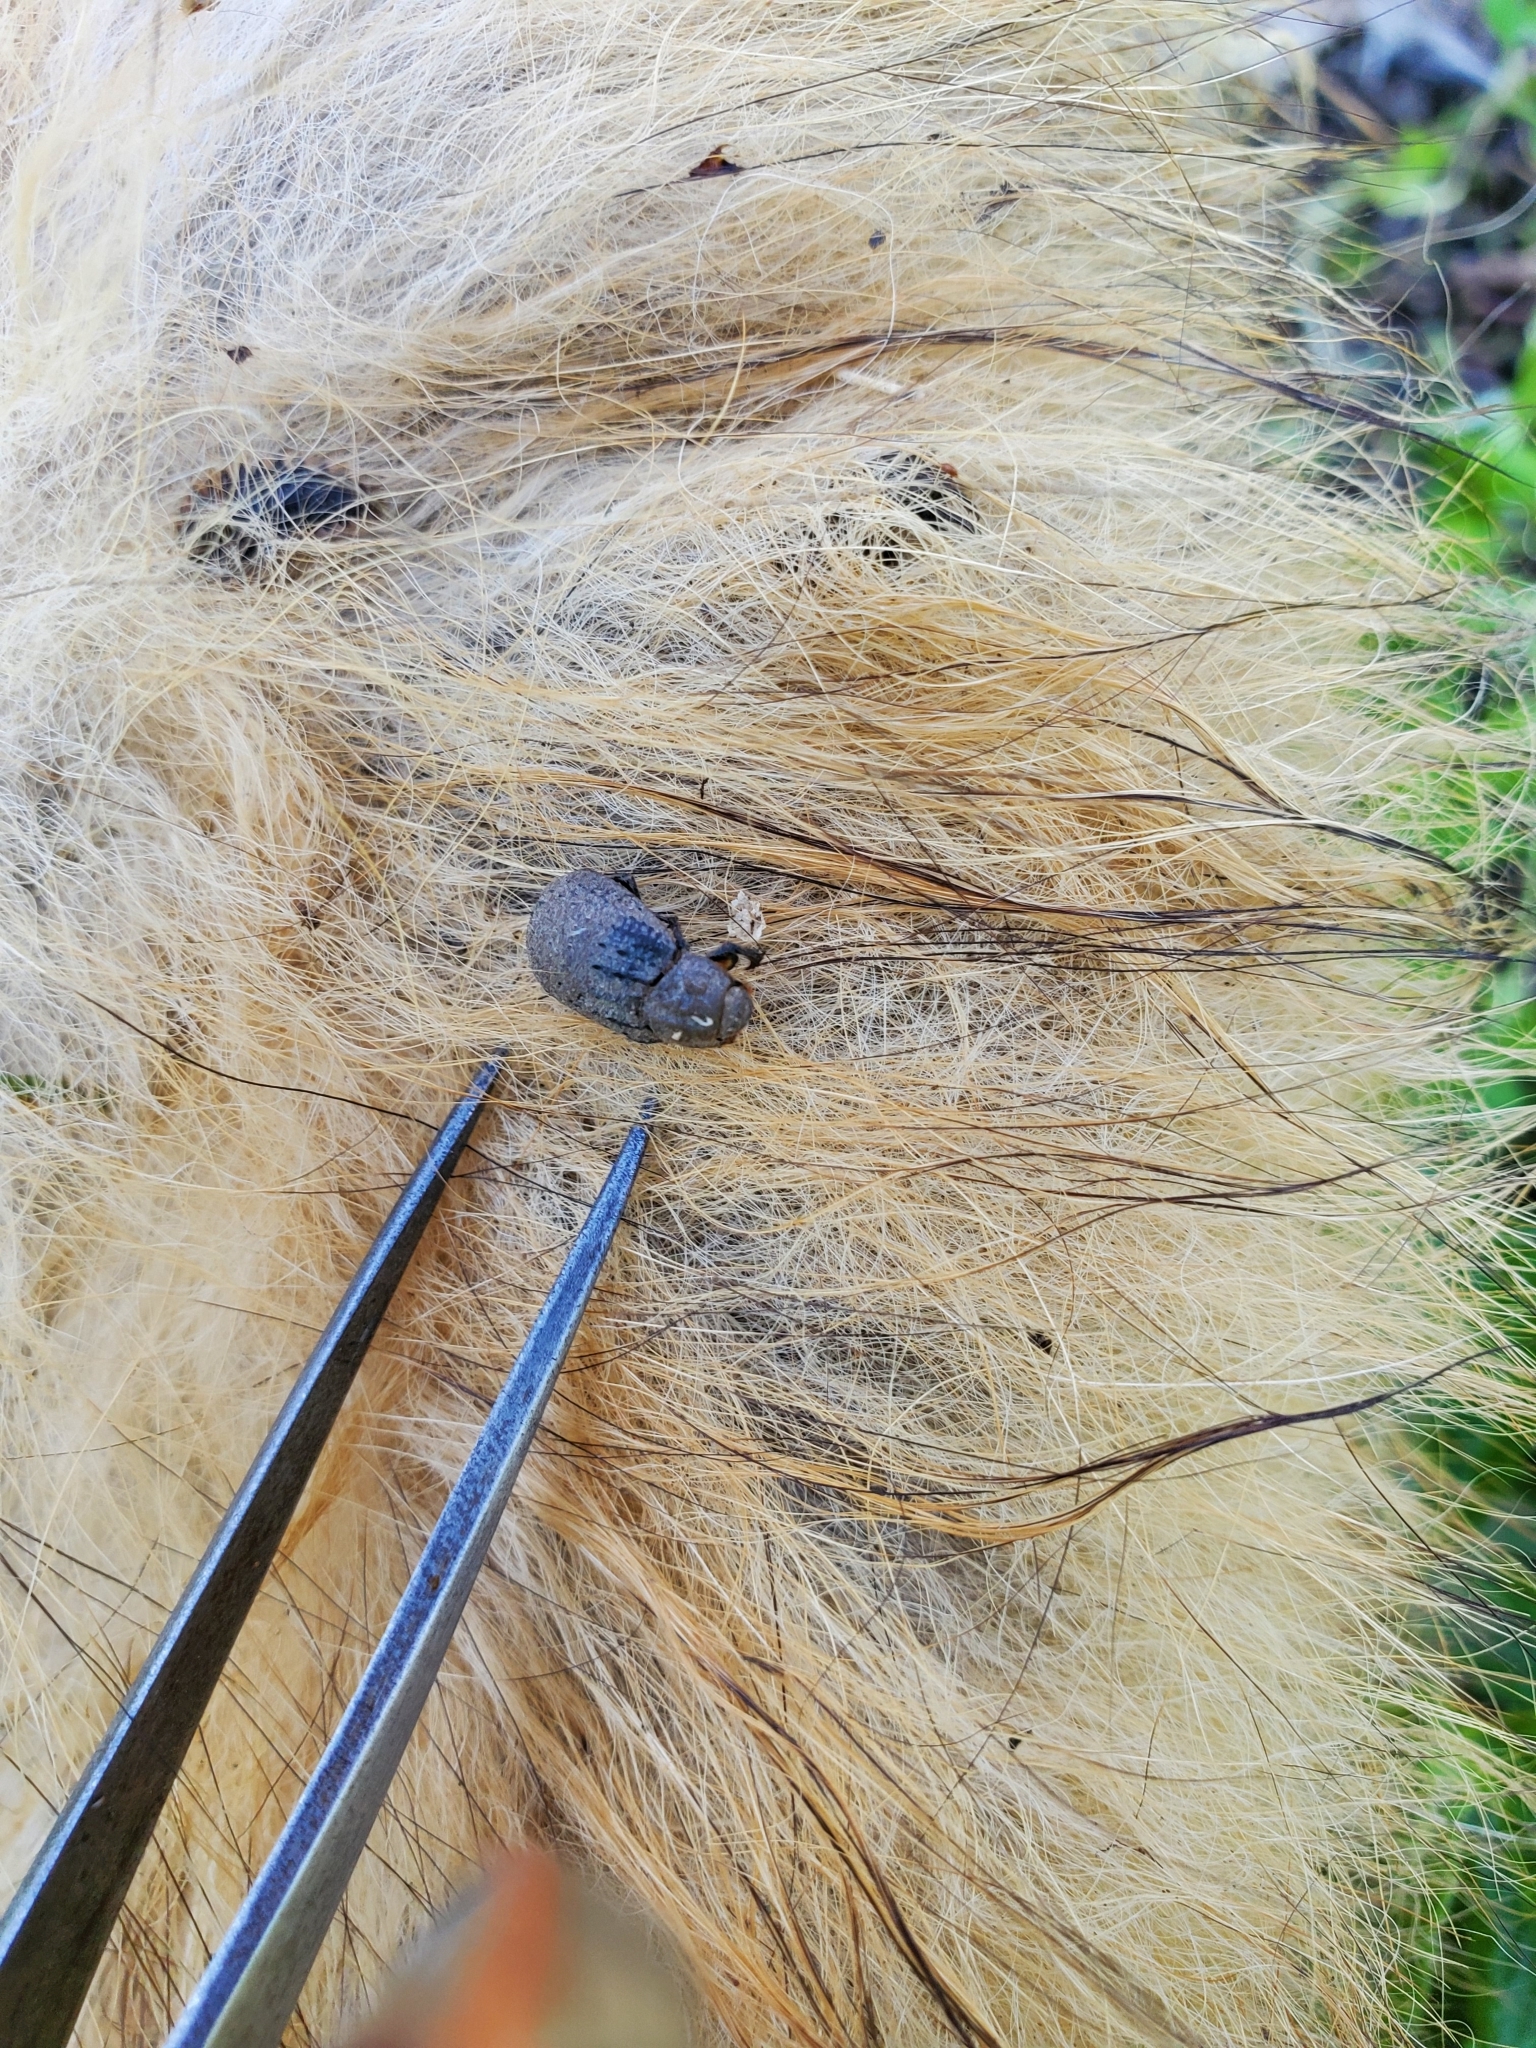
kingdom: Animalia
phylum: Arthropoda
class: Insecta
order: Coleoptera
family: Trogidae
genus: Trox
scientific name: Trox capillaris
